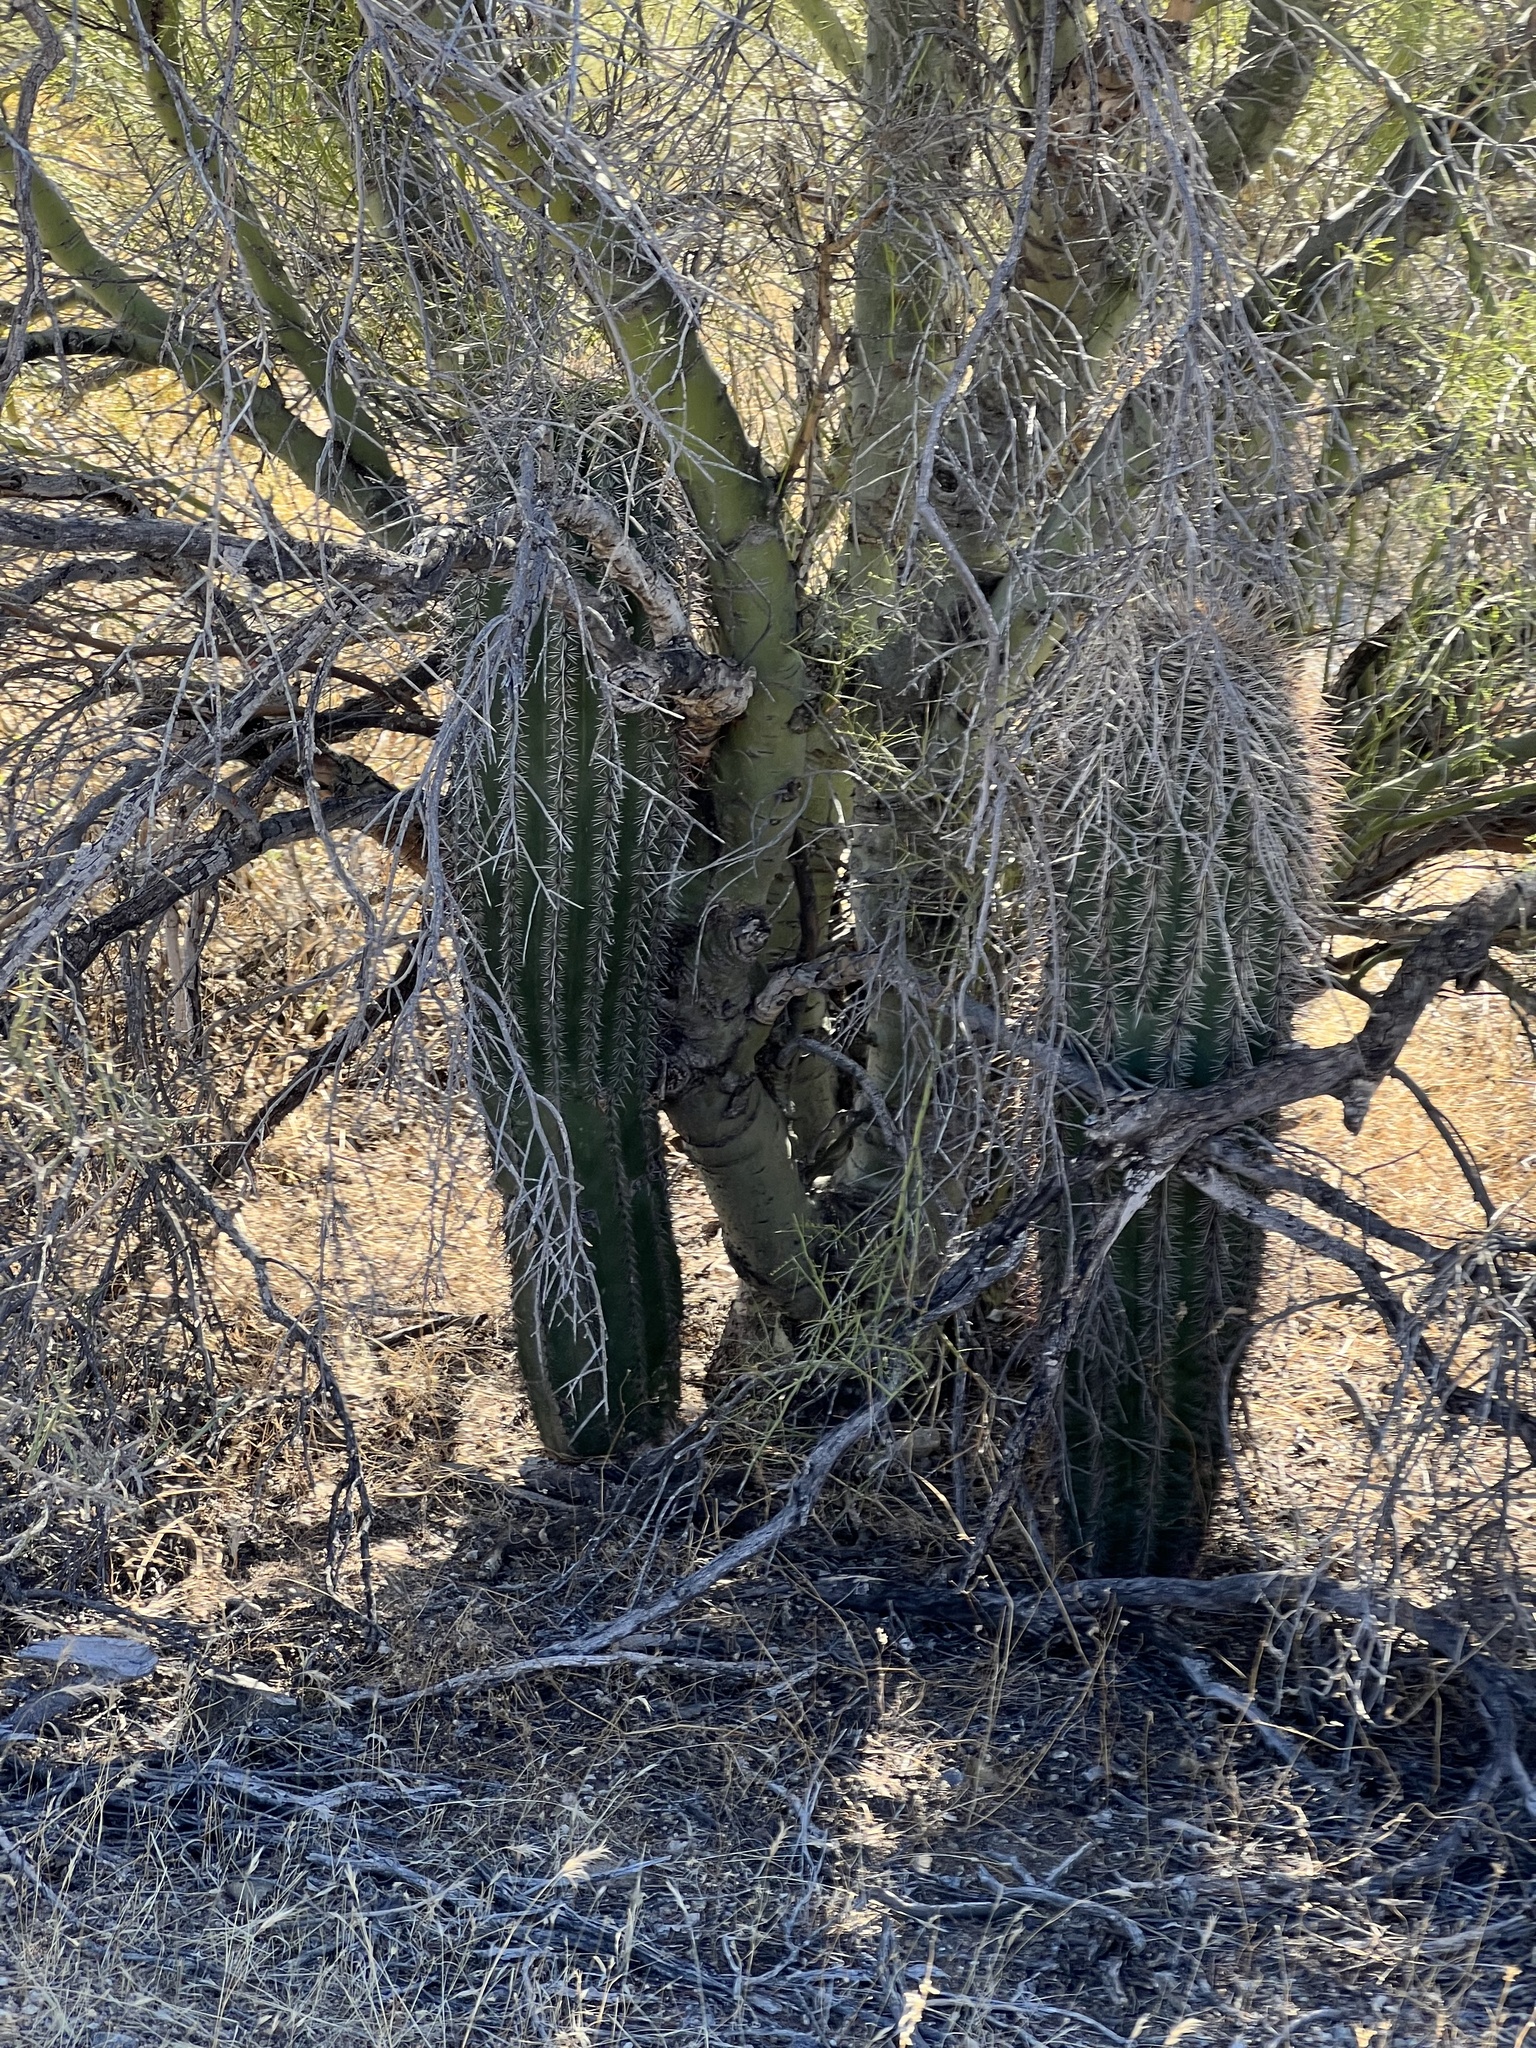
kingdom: Plantae
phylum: Tracheophyta
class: Magnoliopsida
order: Caryophyllales
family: Cactaceae
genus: Carnegiea
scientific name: Carnegiea gigantea
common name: Saguaro
